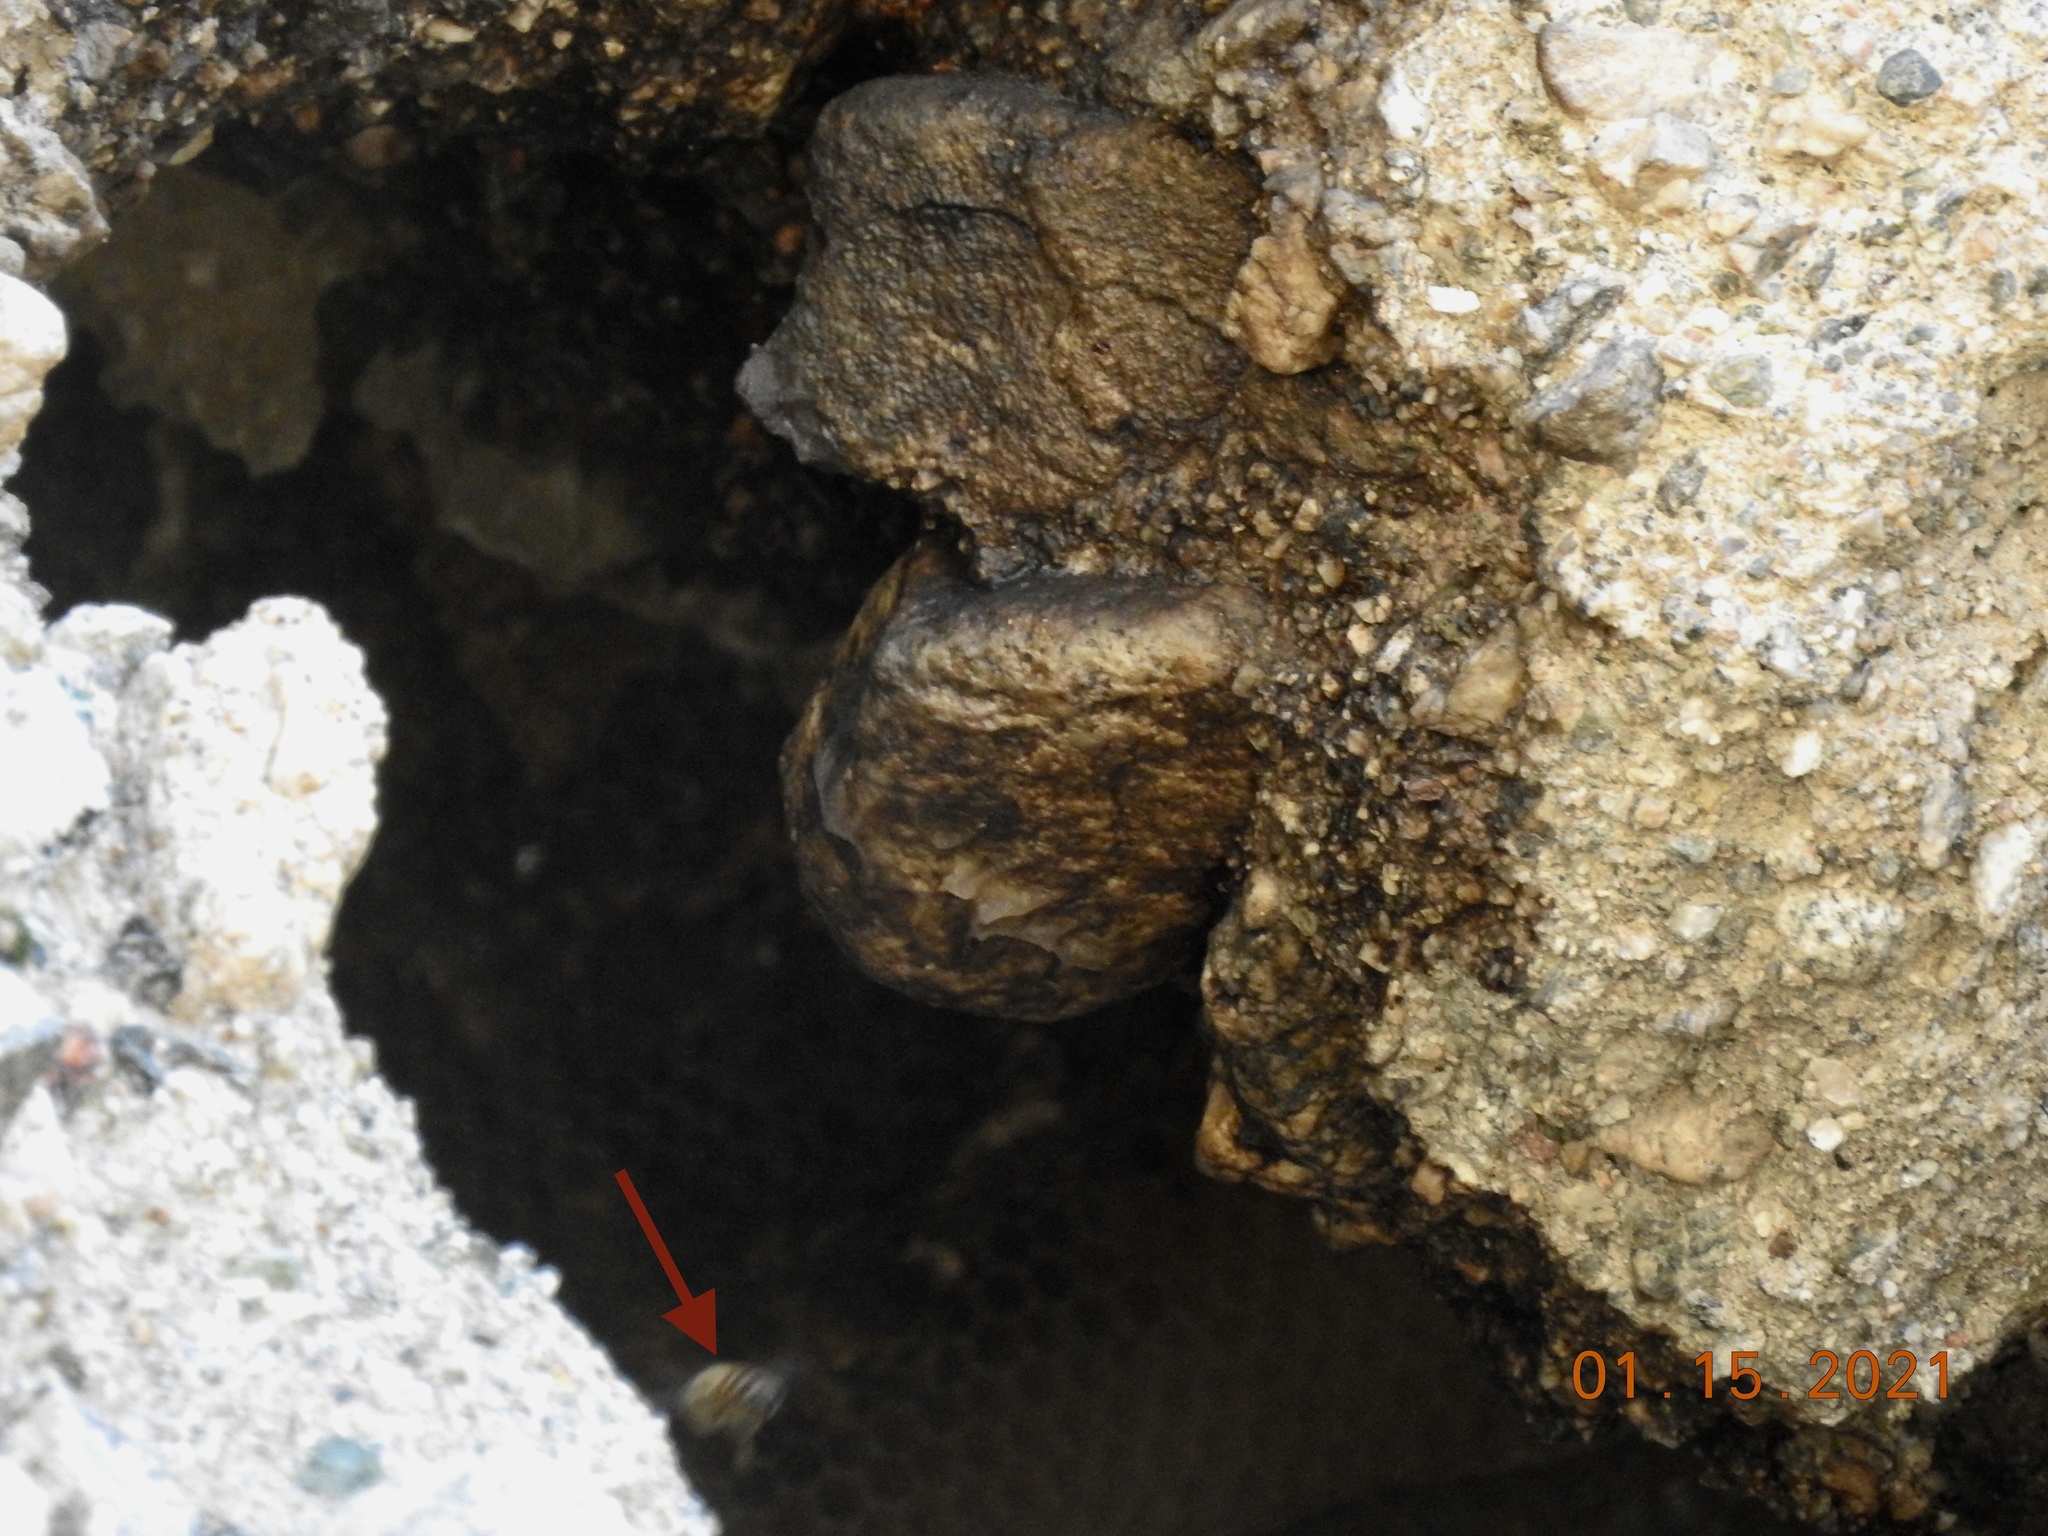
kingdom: Animalia
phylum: Arthropoda
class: Insecta
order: Hymenoptera
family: Apidae
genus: Apis
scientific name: Apis mellifera
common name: Honey bee
